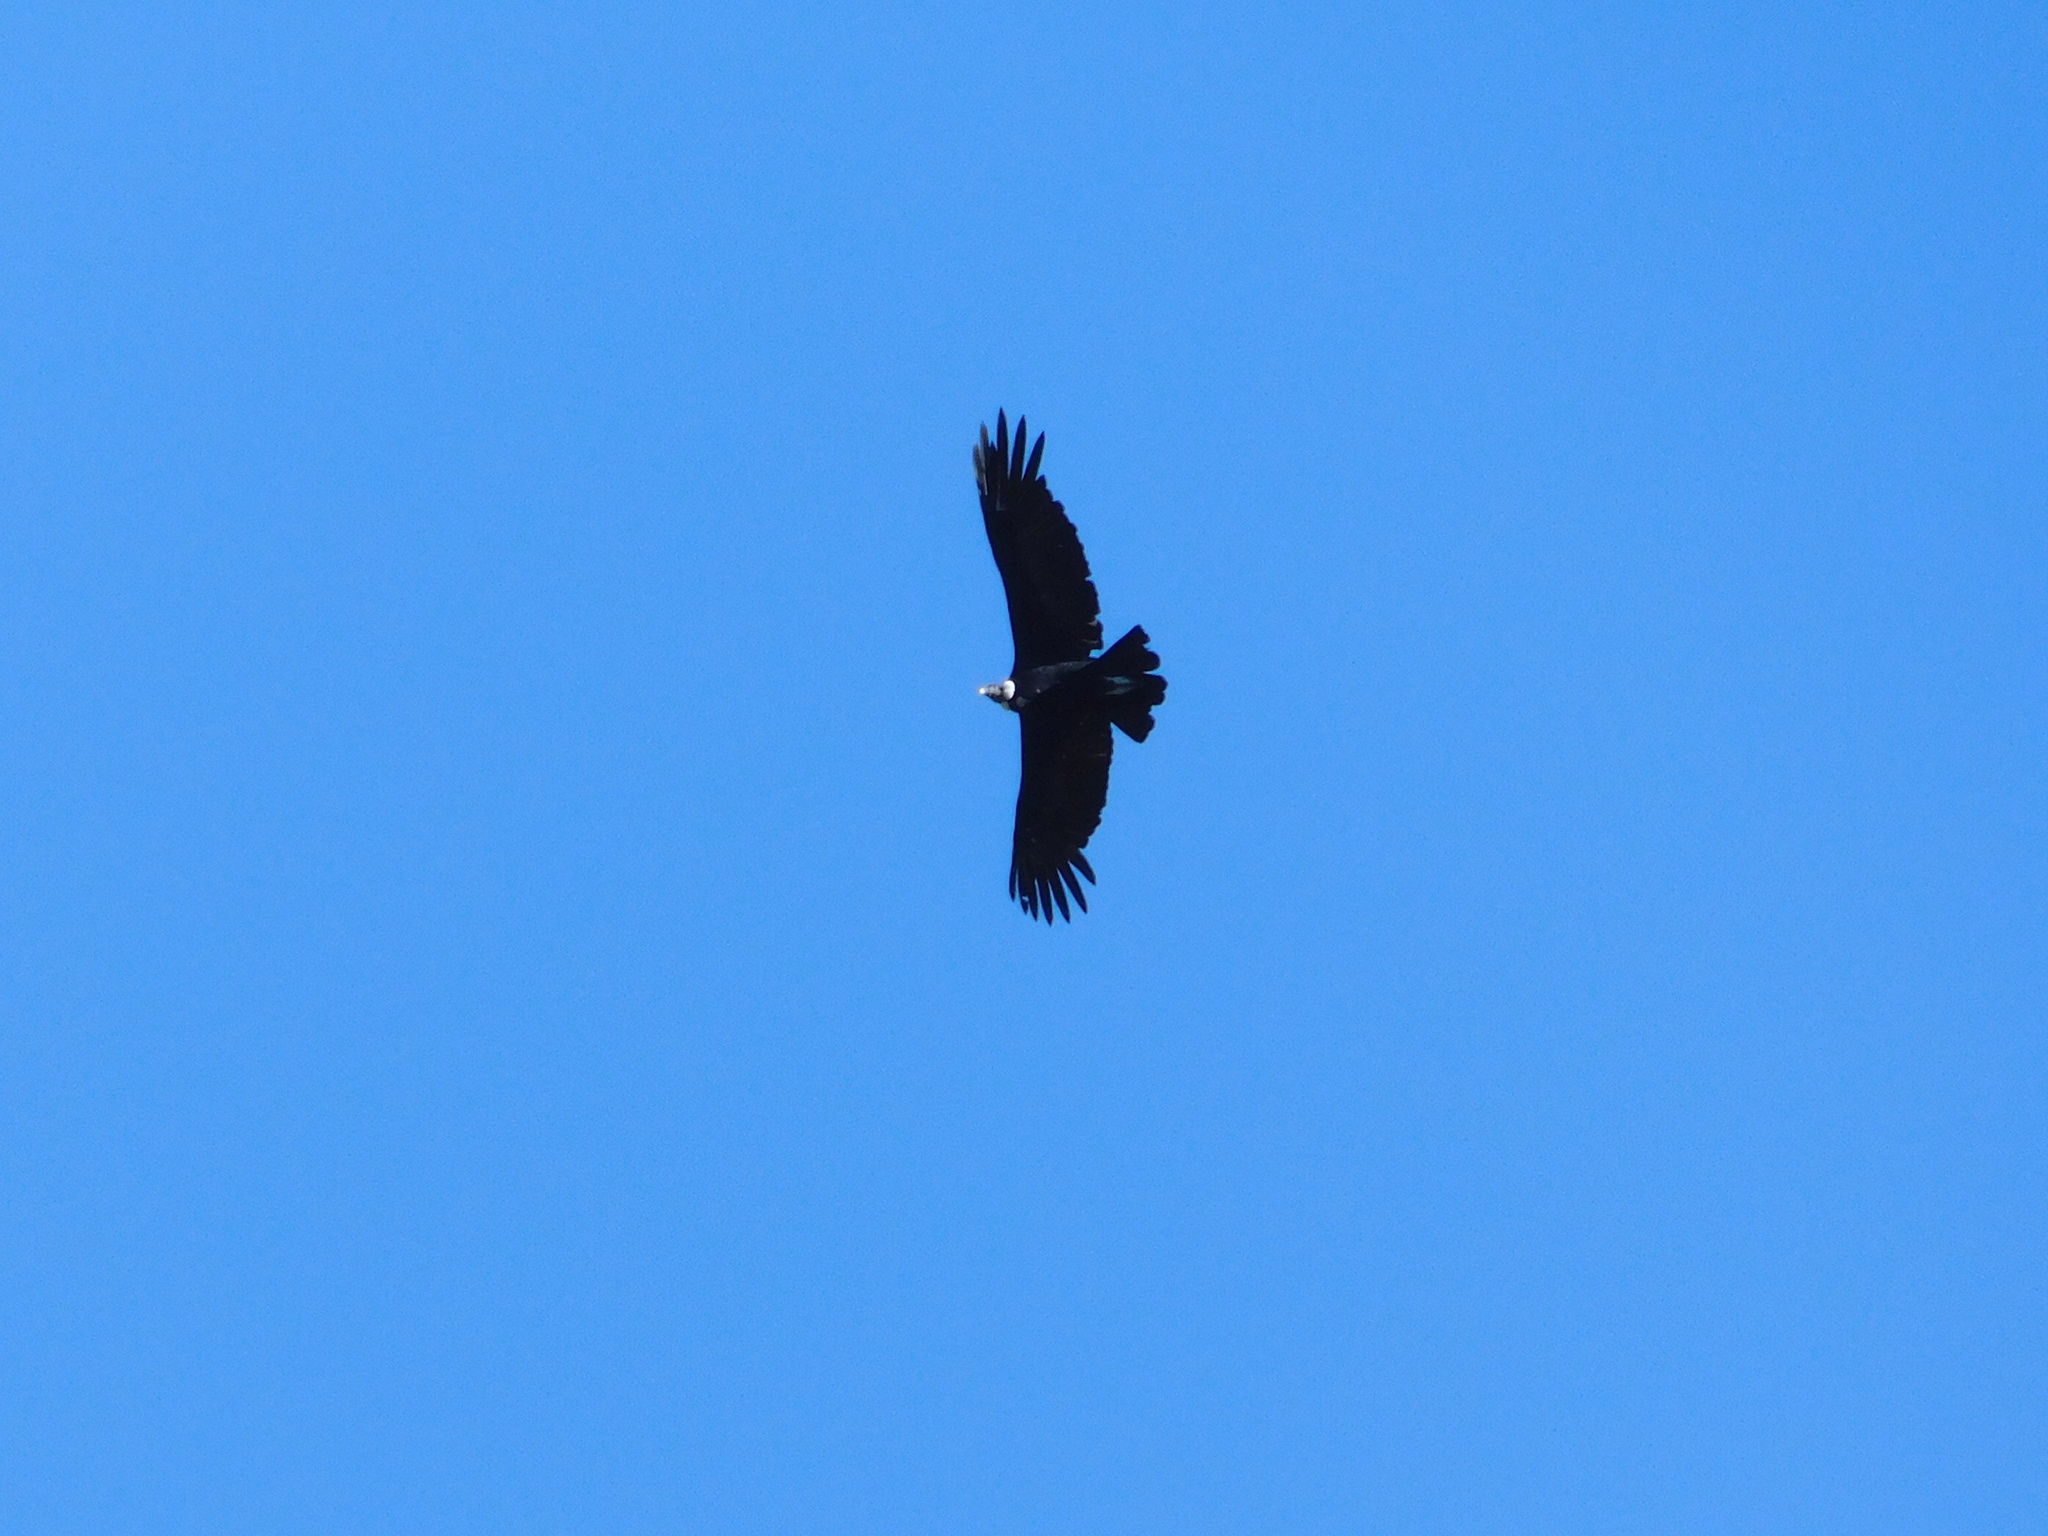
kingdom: Animalia
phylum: Chordata
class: Aves
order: Accipitriformes
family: Cathartidae
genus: Vultur
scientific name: Vultur gryphus
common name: Andean condor
